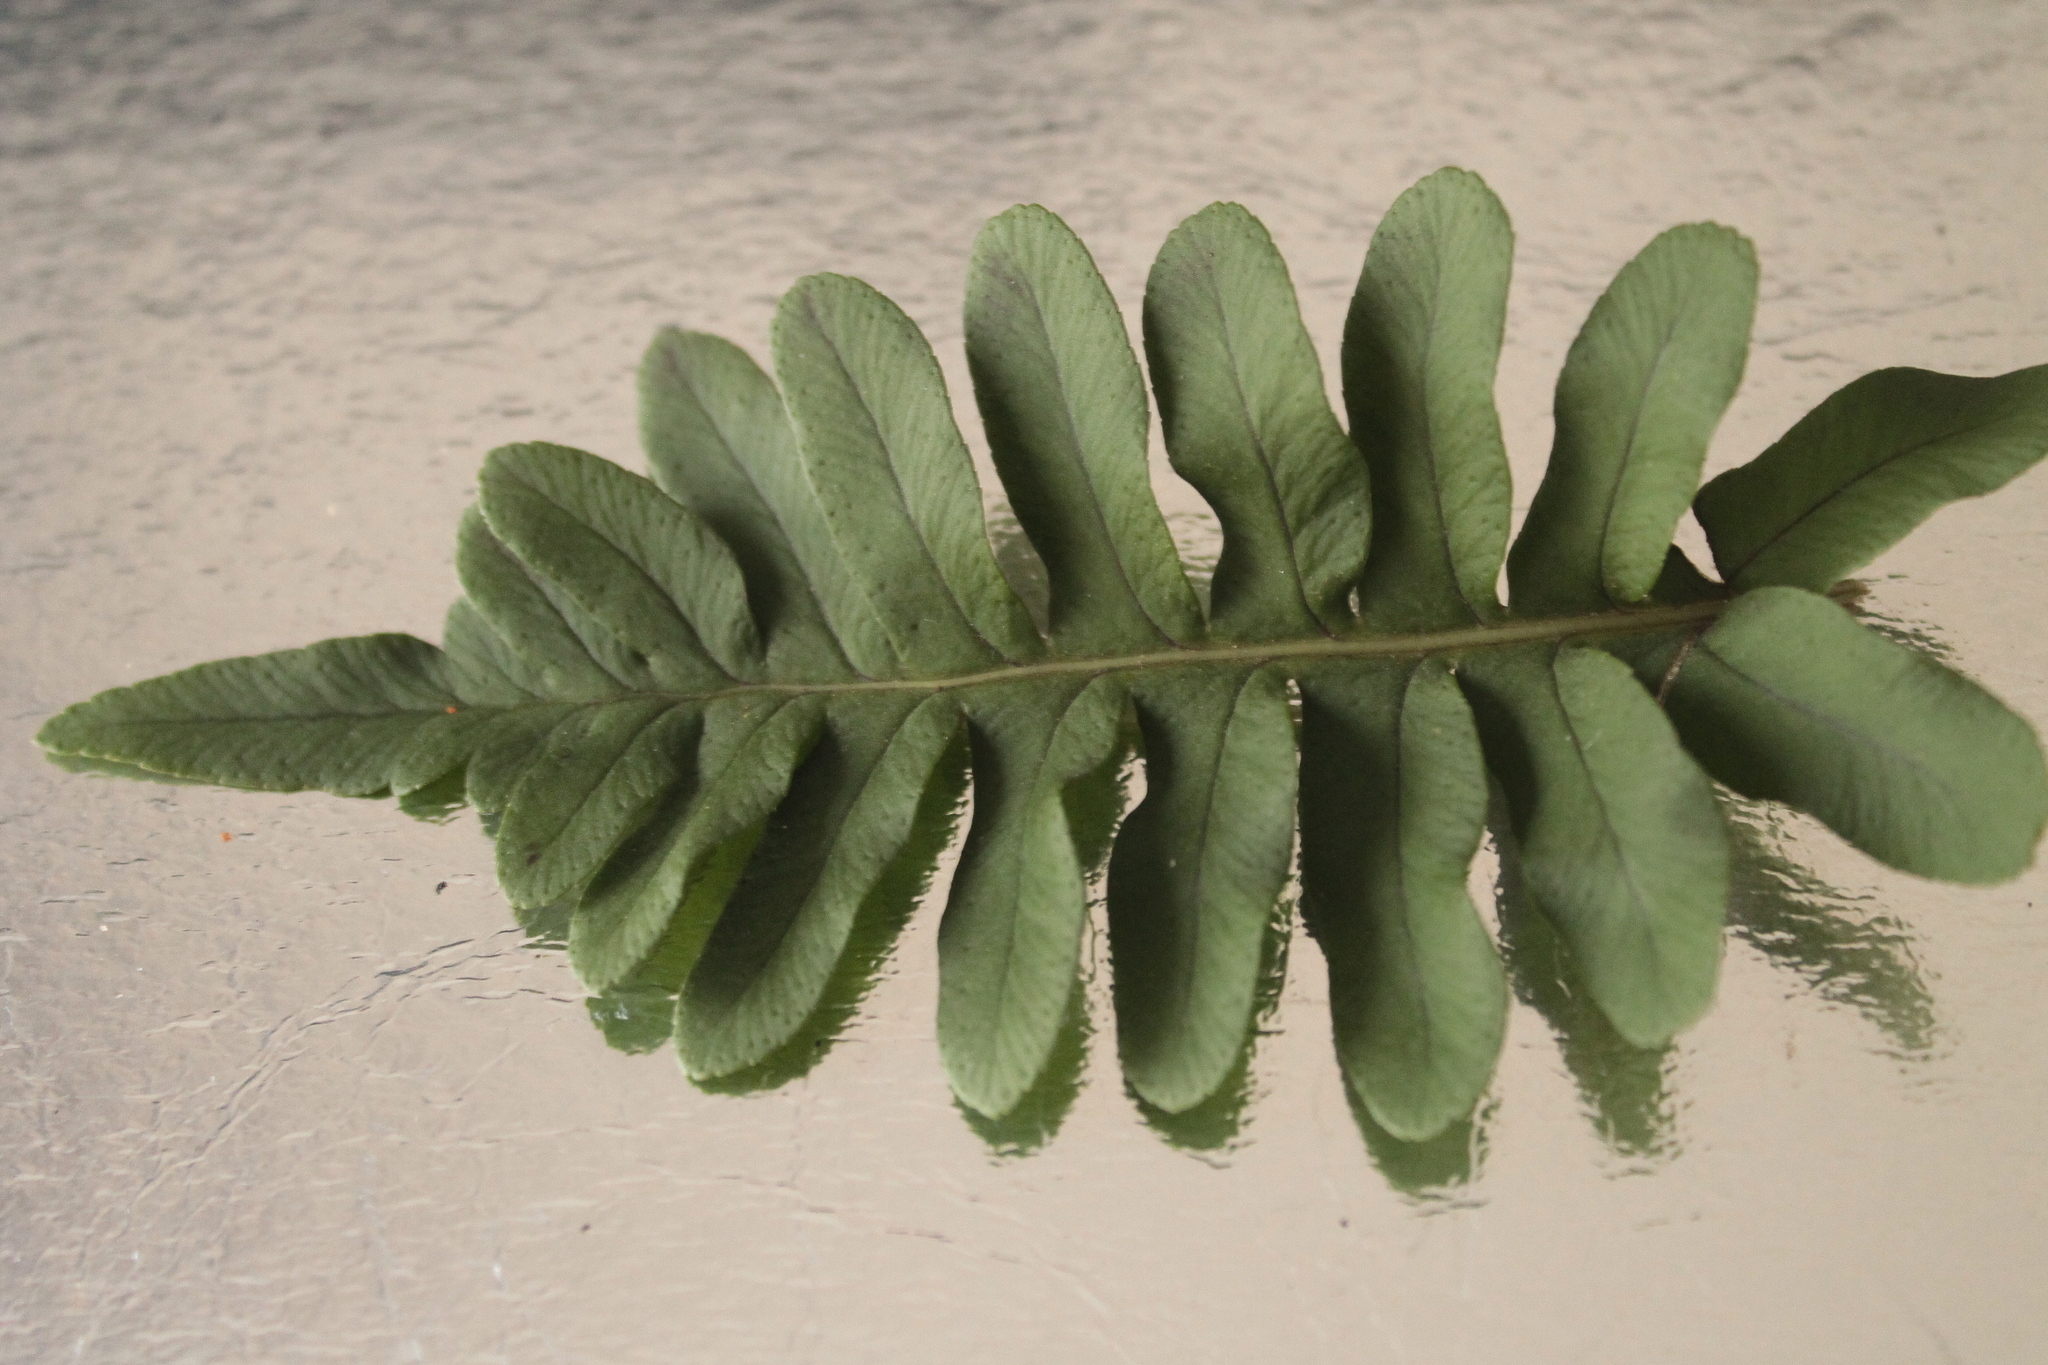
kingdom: Plantae
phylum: Tracheophyta
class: Polypodiopsida
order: Polypodiales
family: Polypodiaceae
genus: Polypodium
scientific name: Polypodium vulgare
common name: Common polypody
